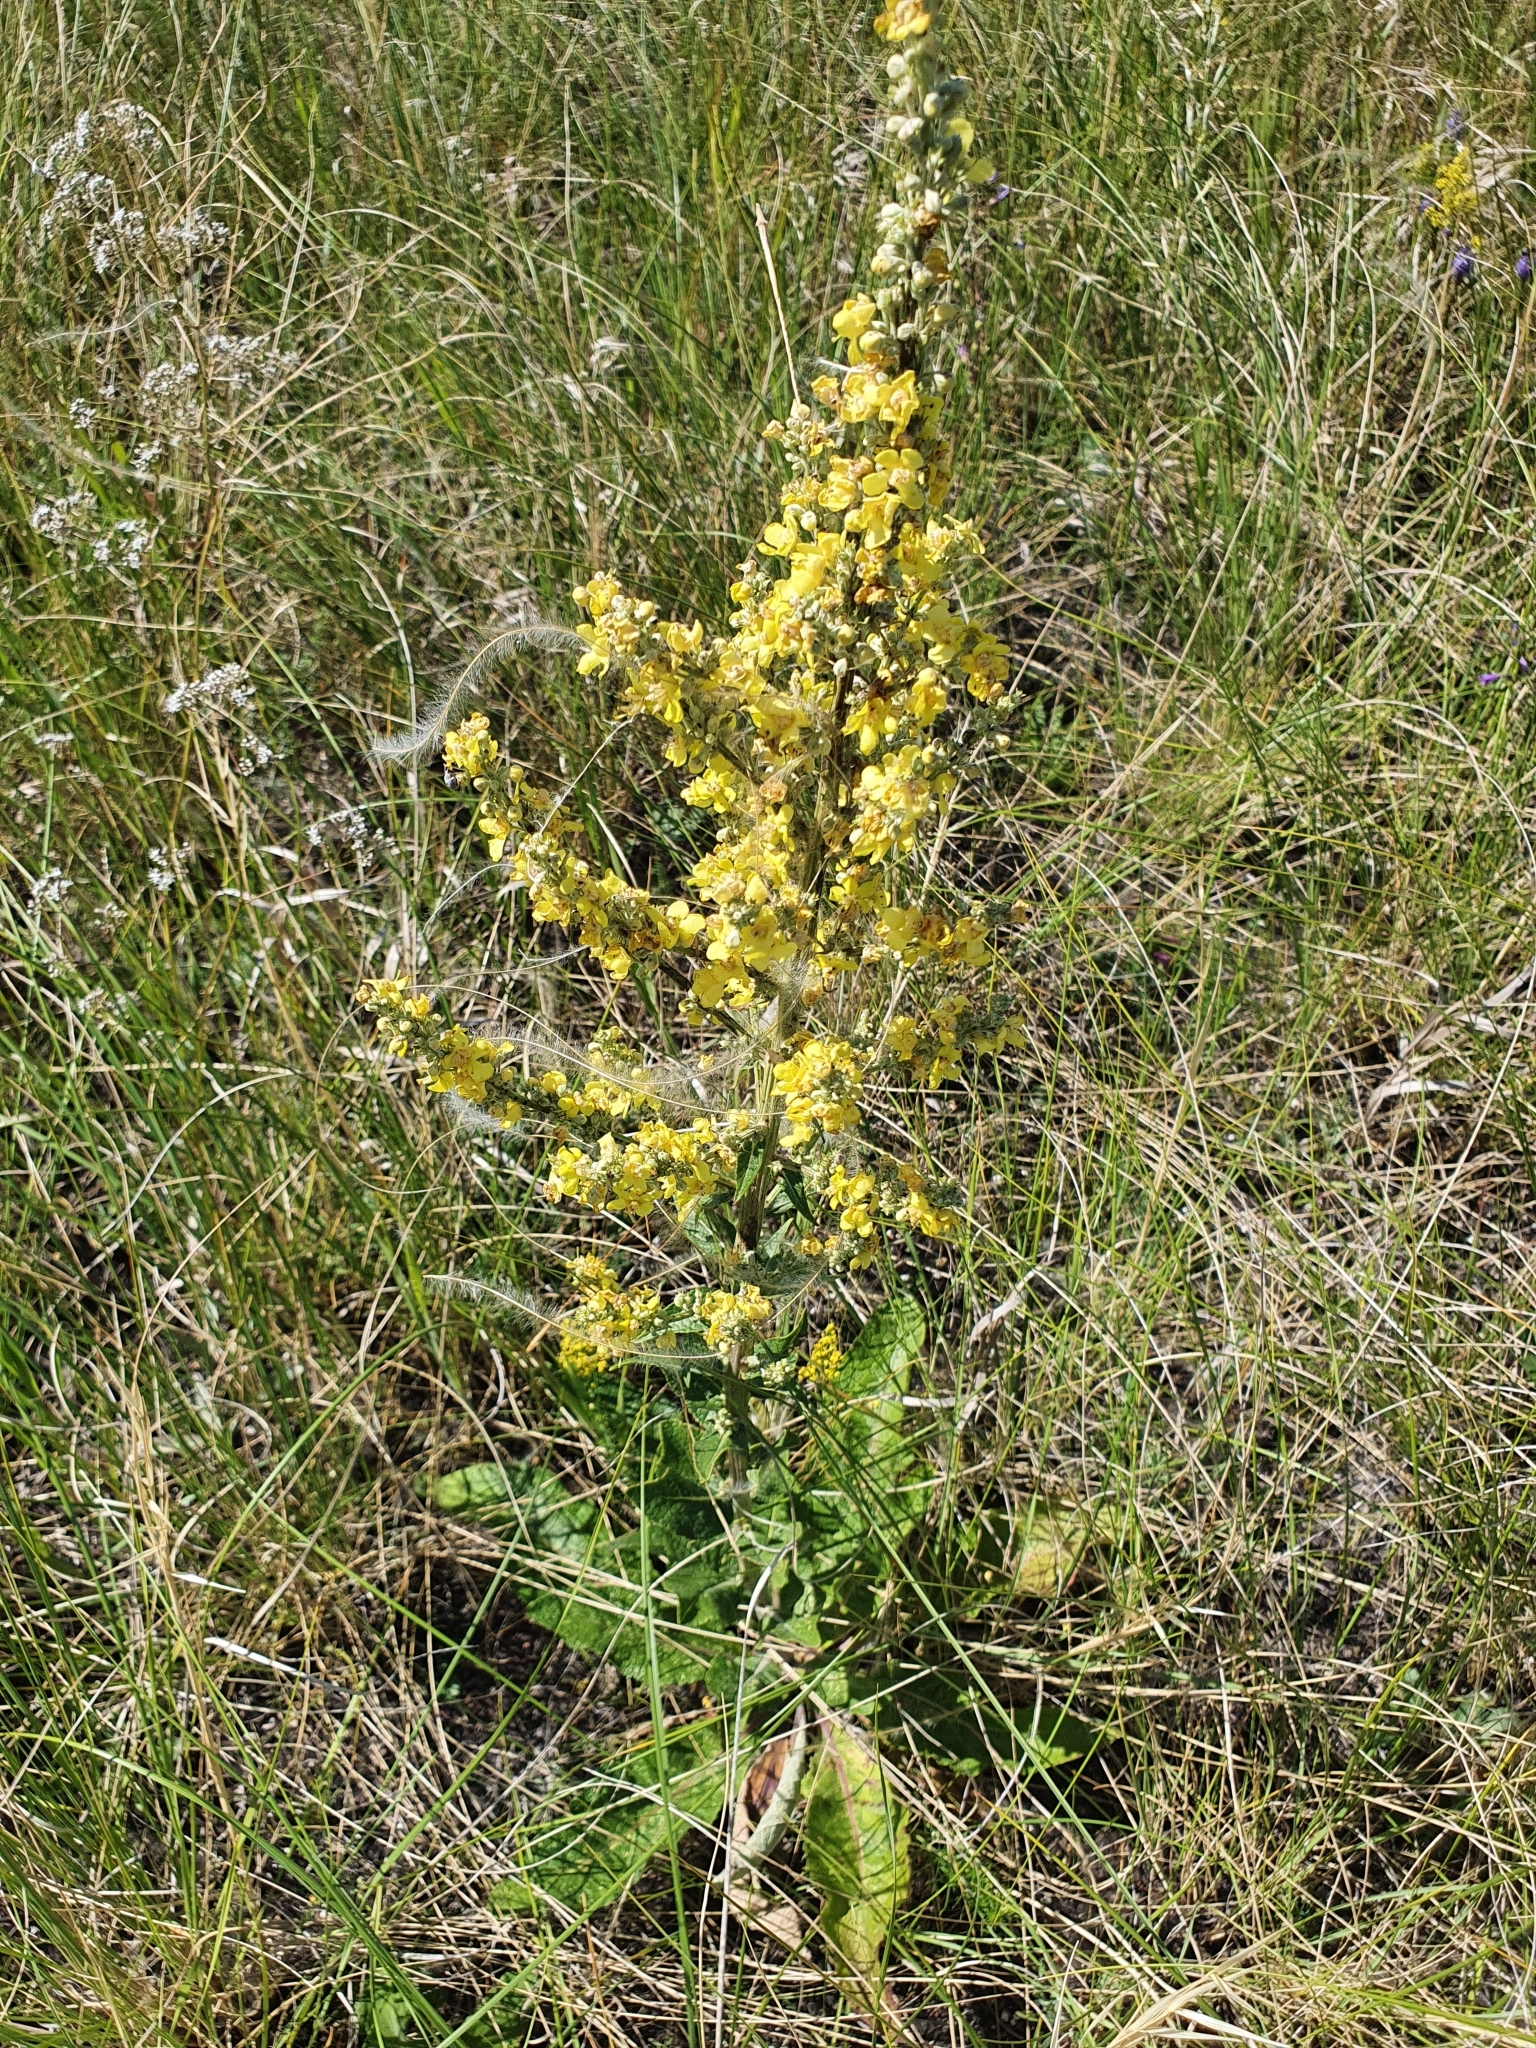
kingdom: Plantae
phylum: Tracheophyta
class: Magnoliopsida
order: Lamiales
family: Scrophulariaceae
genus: Verbascum
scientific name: Verbascum lychnitis
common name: White mullein
